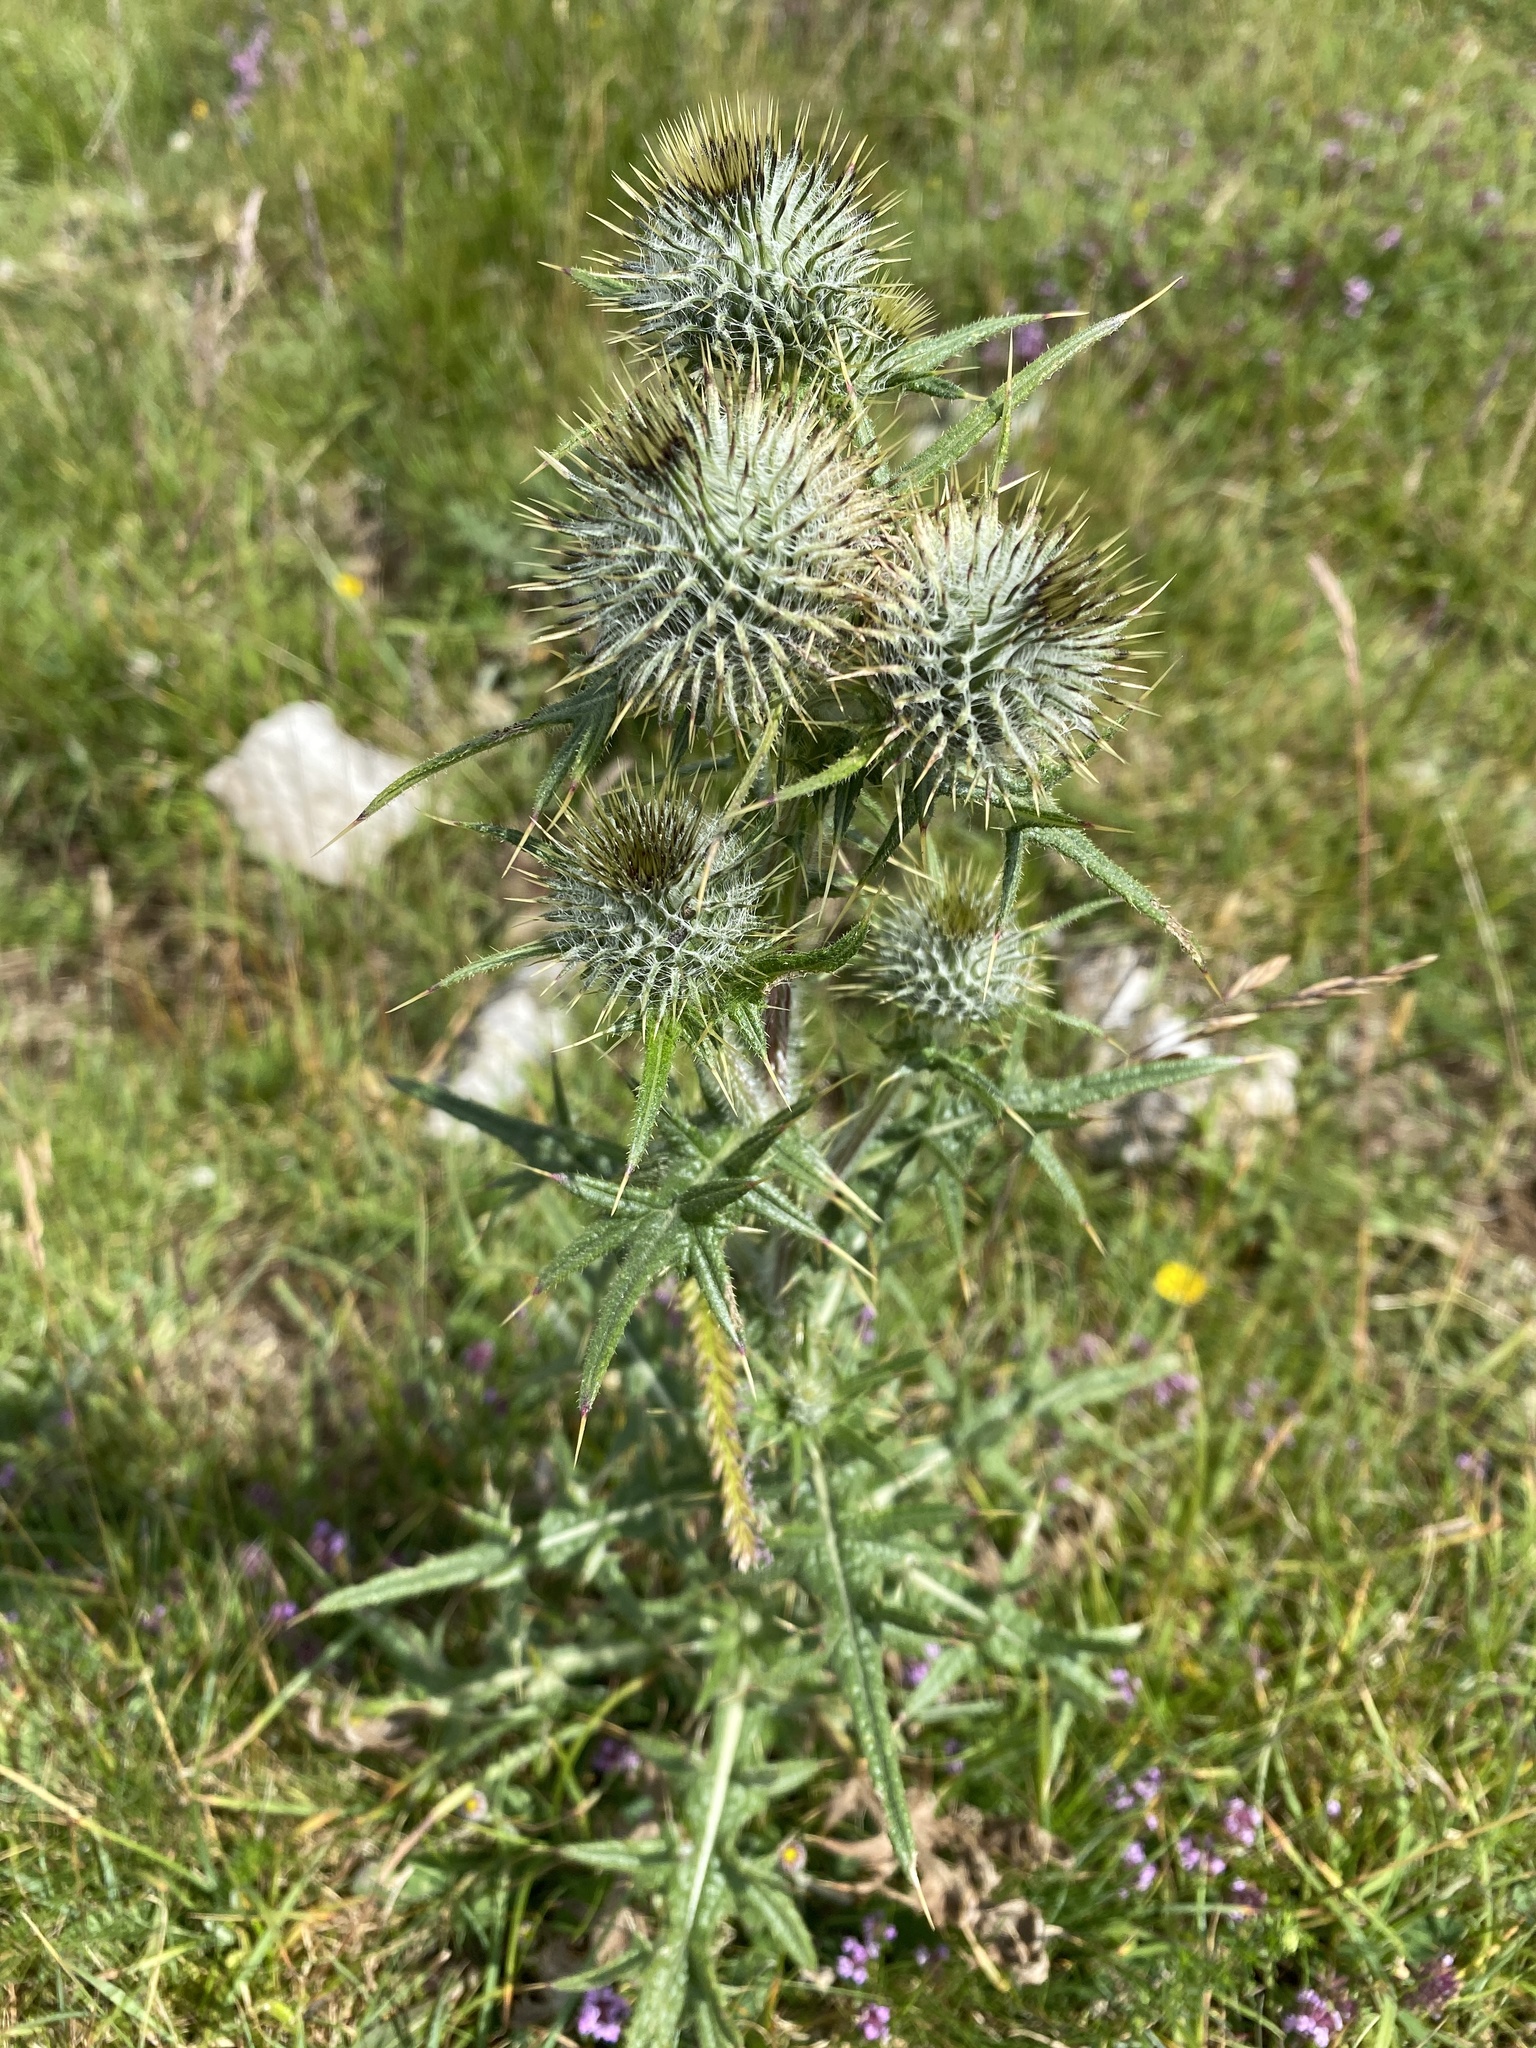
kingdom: Plantae
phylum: Tracheophyta
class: Magnoliopsida
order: Asterales
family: Asteraceae
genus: Cirsium
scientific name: Cirsium vulgare
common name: Bull thistle
